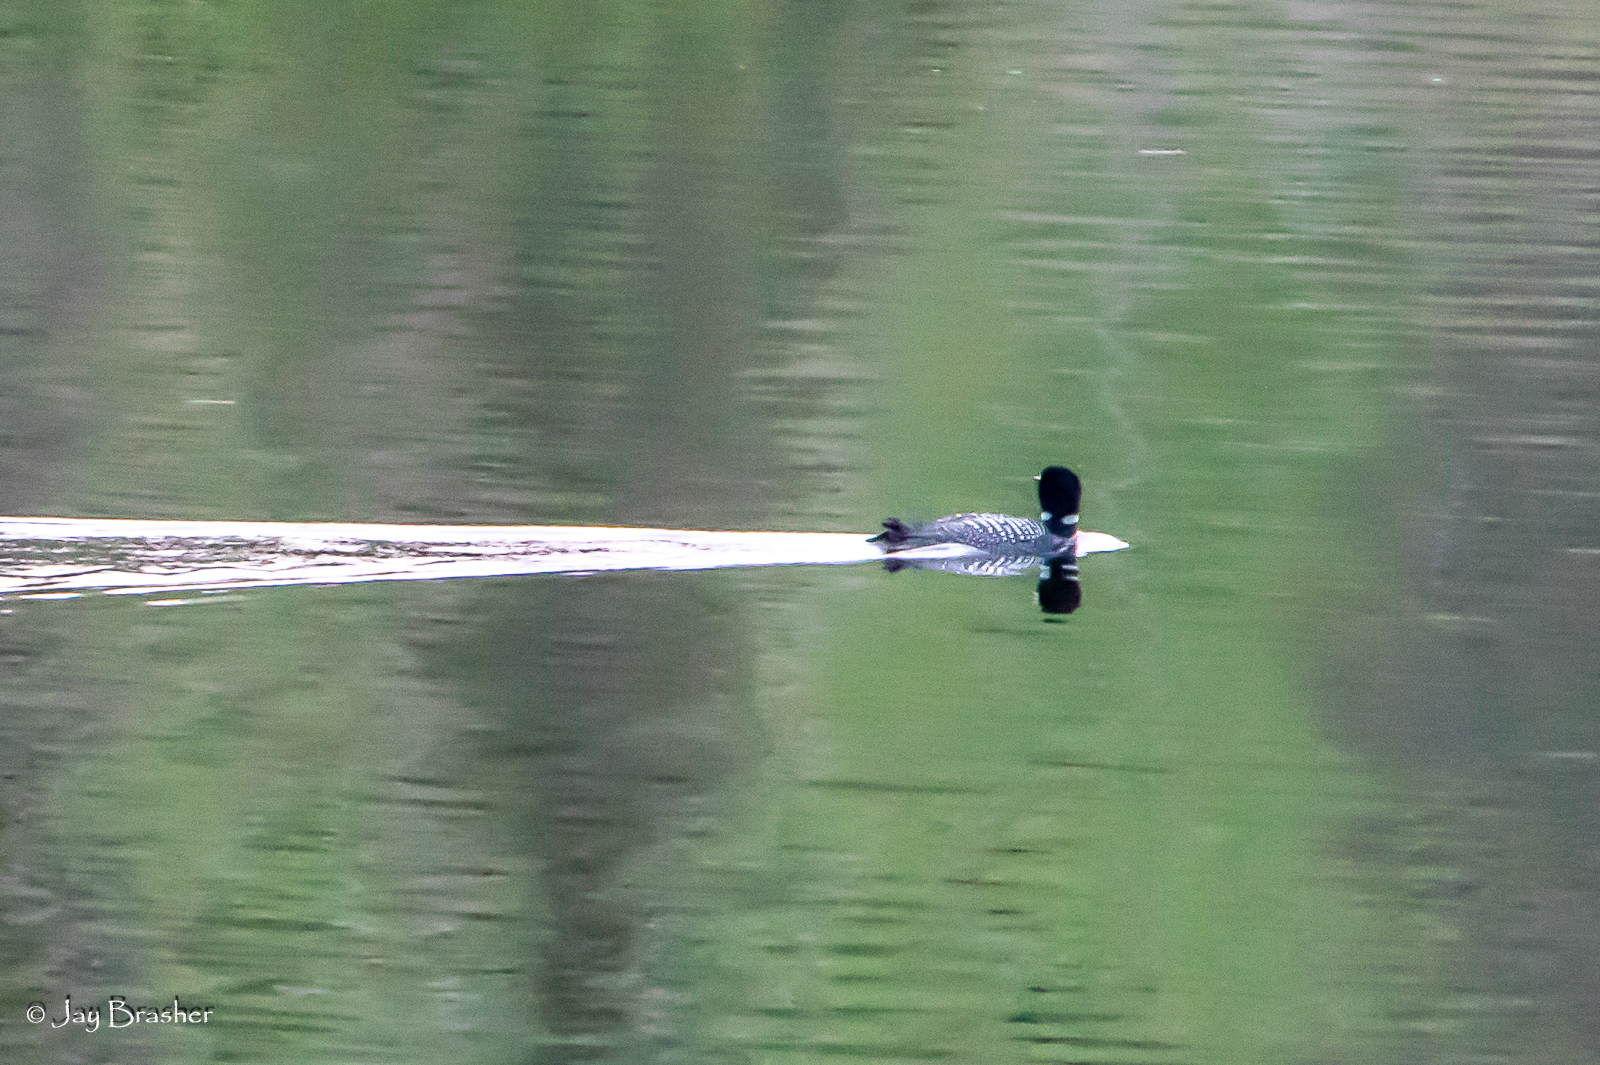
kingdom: Animalia
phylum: Chordata
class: Aves
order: Gaviiformes
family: Gaviidae
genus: Gavia
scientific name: Gavia immer
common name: Common loon
